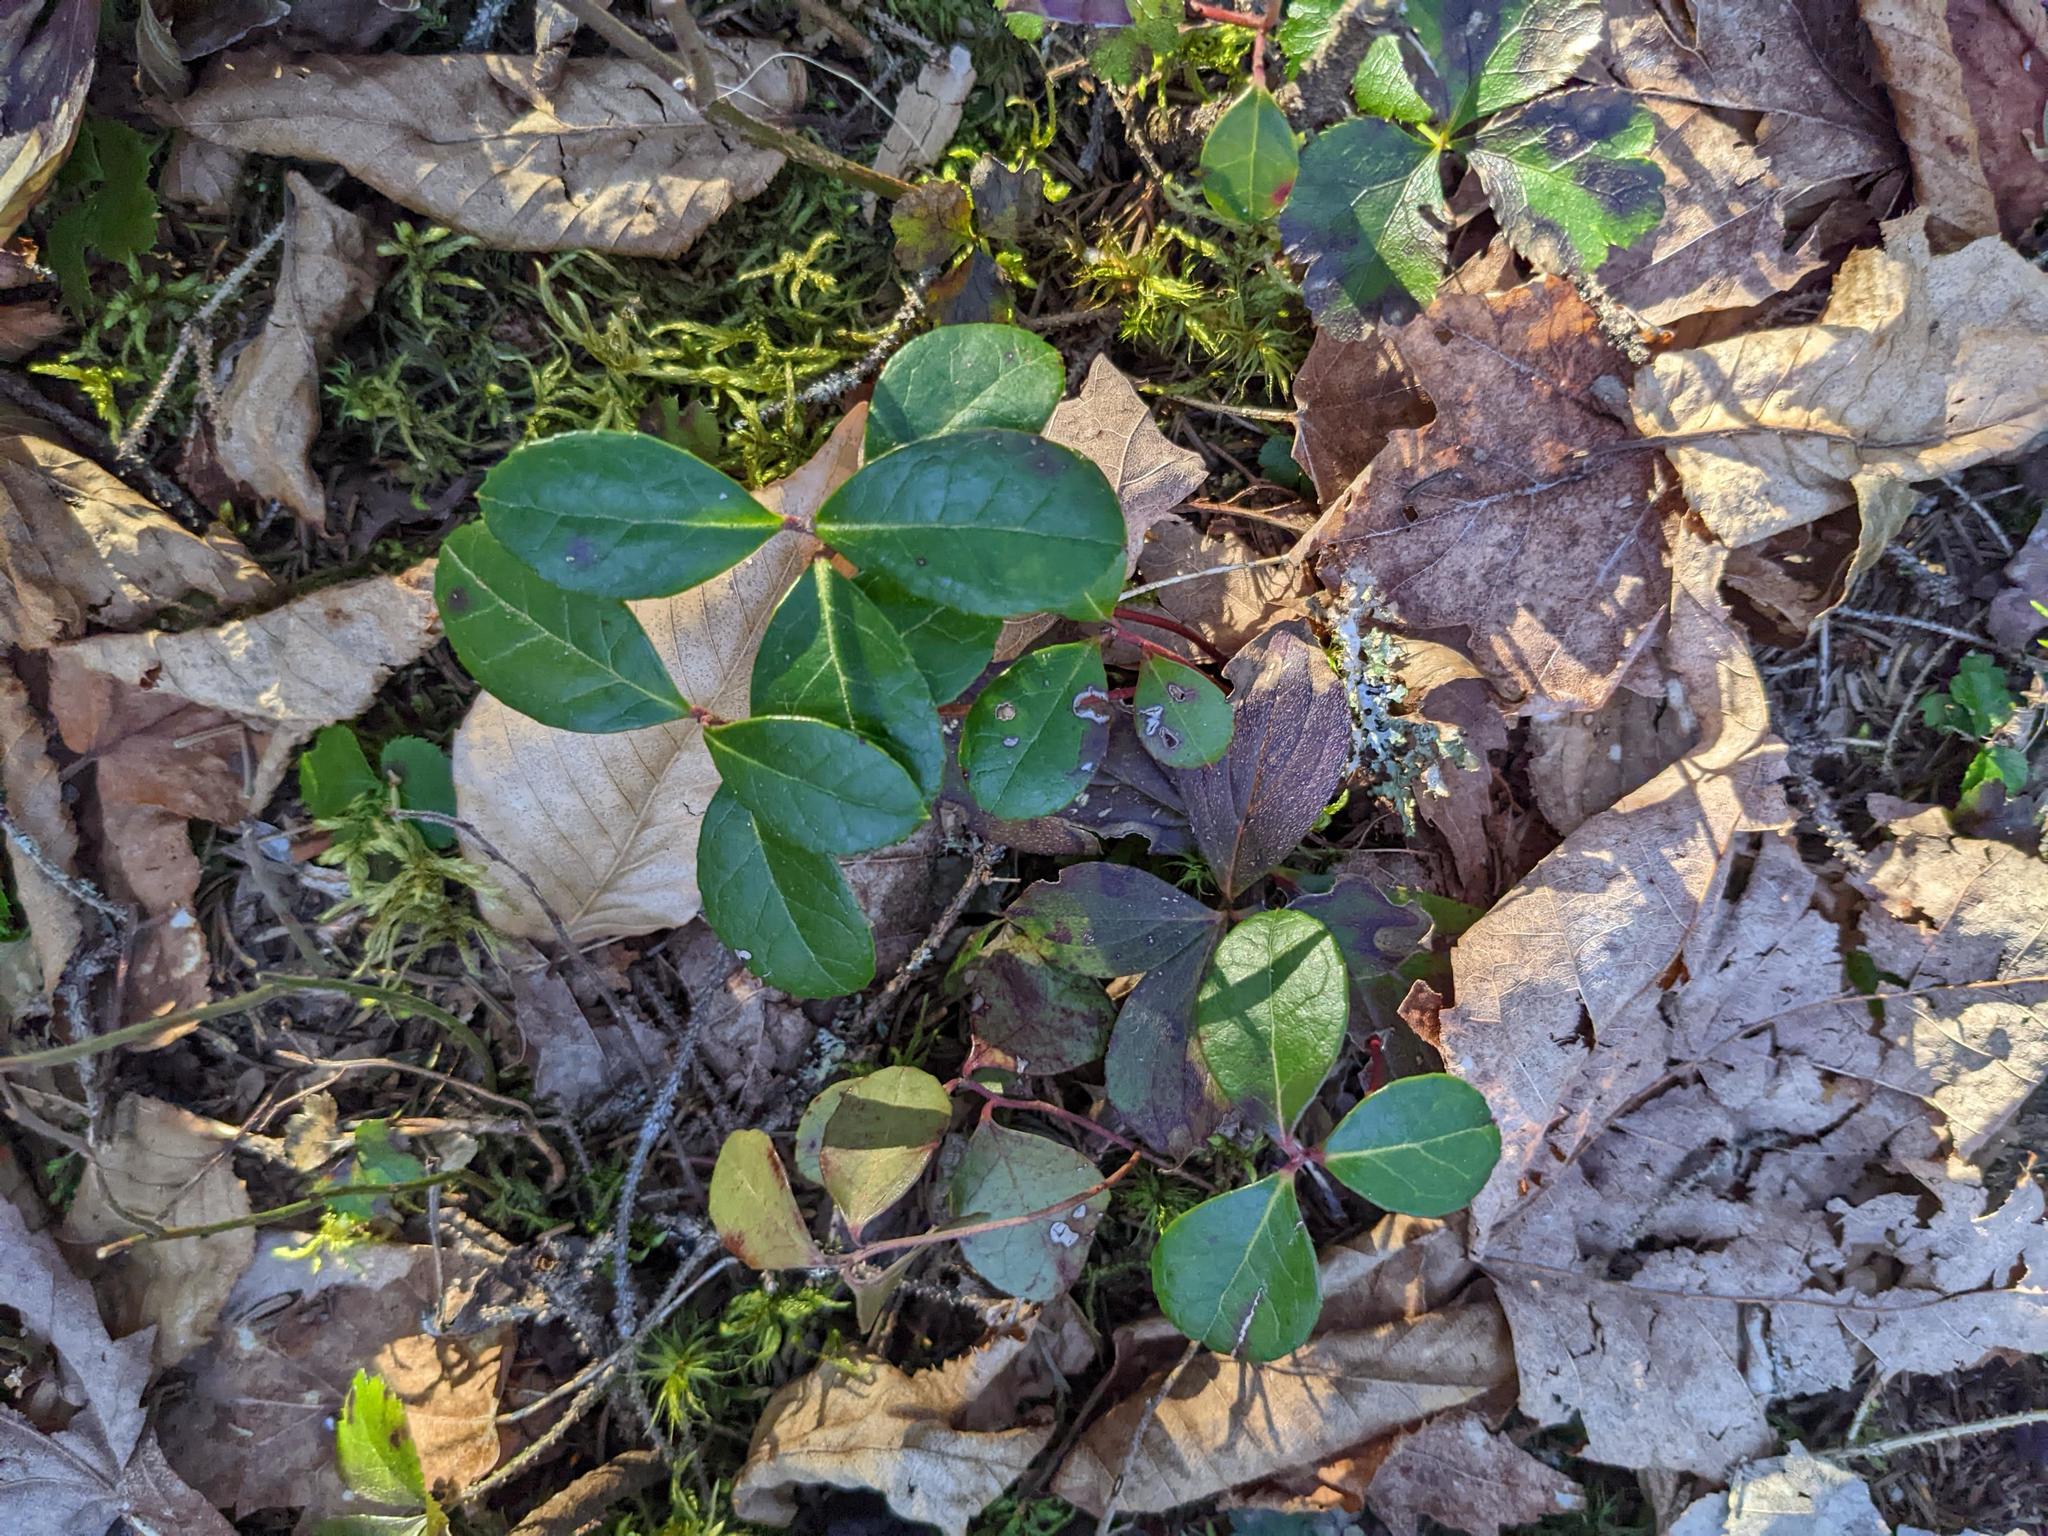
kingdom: Plantae
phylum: Tracheophyta
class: Magnoliopsida
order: Ericales
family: Ericaceae
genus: Gaultheria
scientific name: Gaultheria procumbens
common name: Checkerberry
